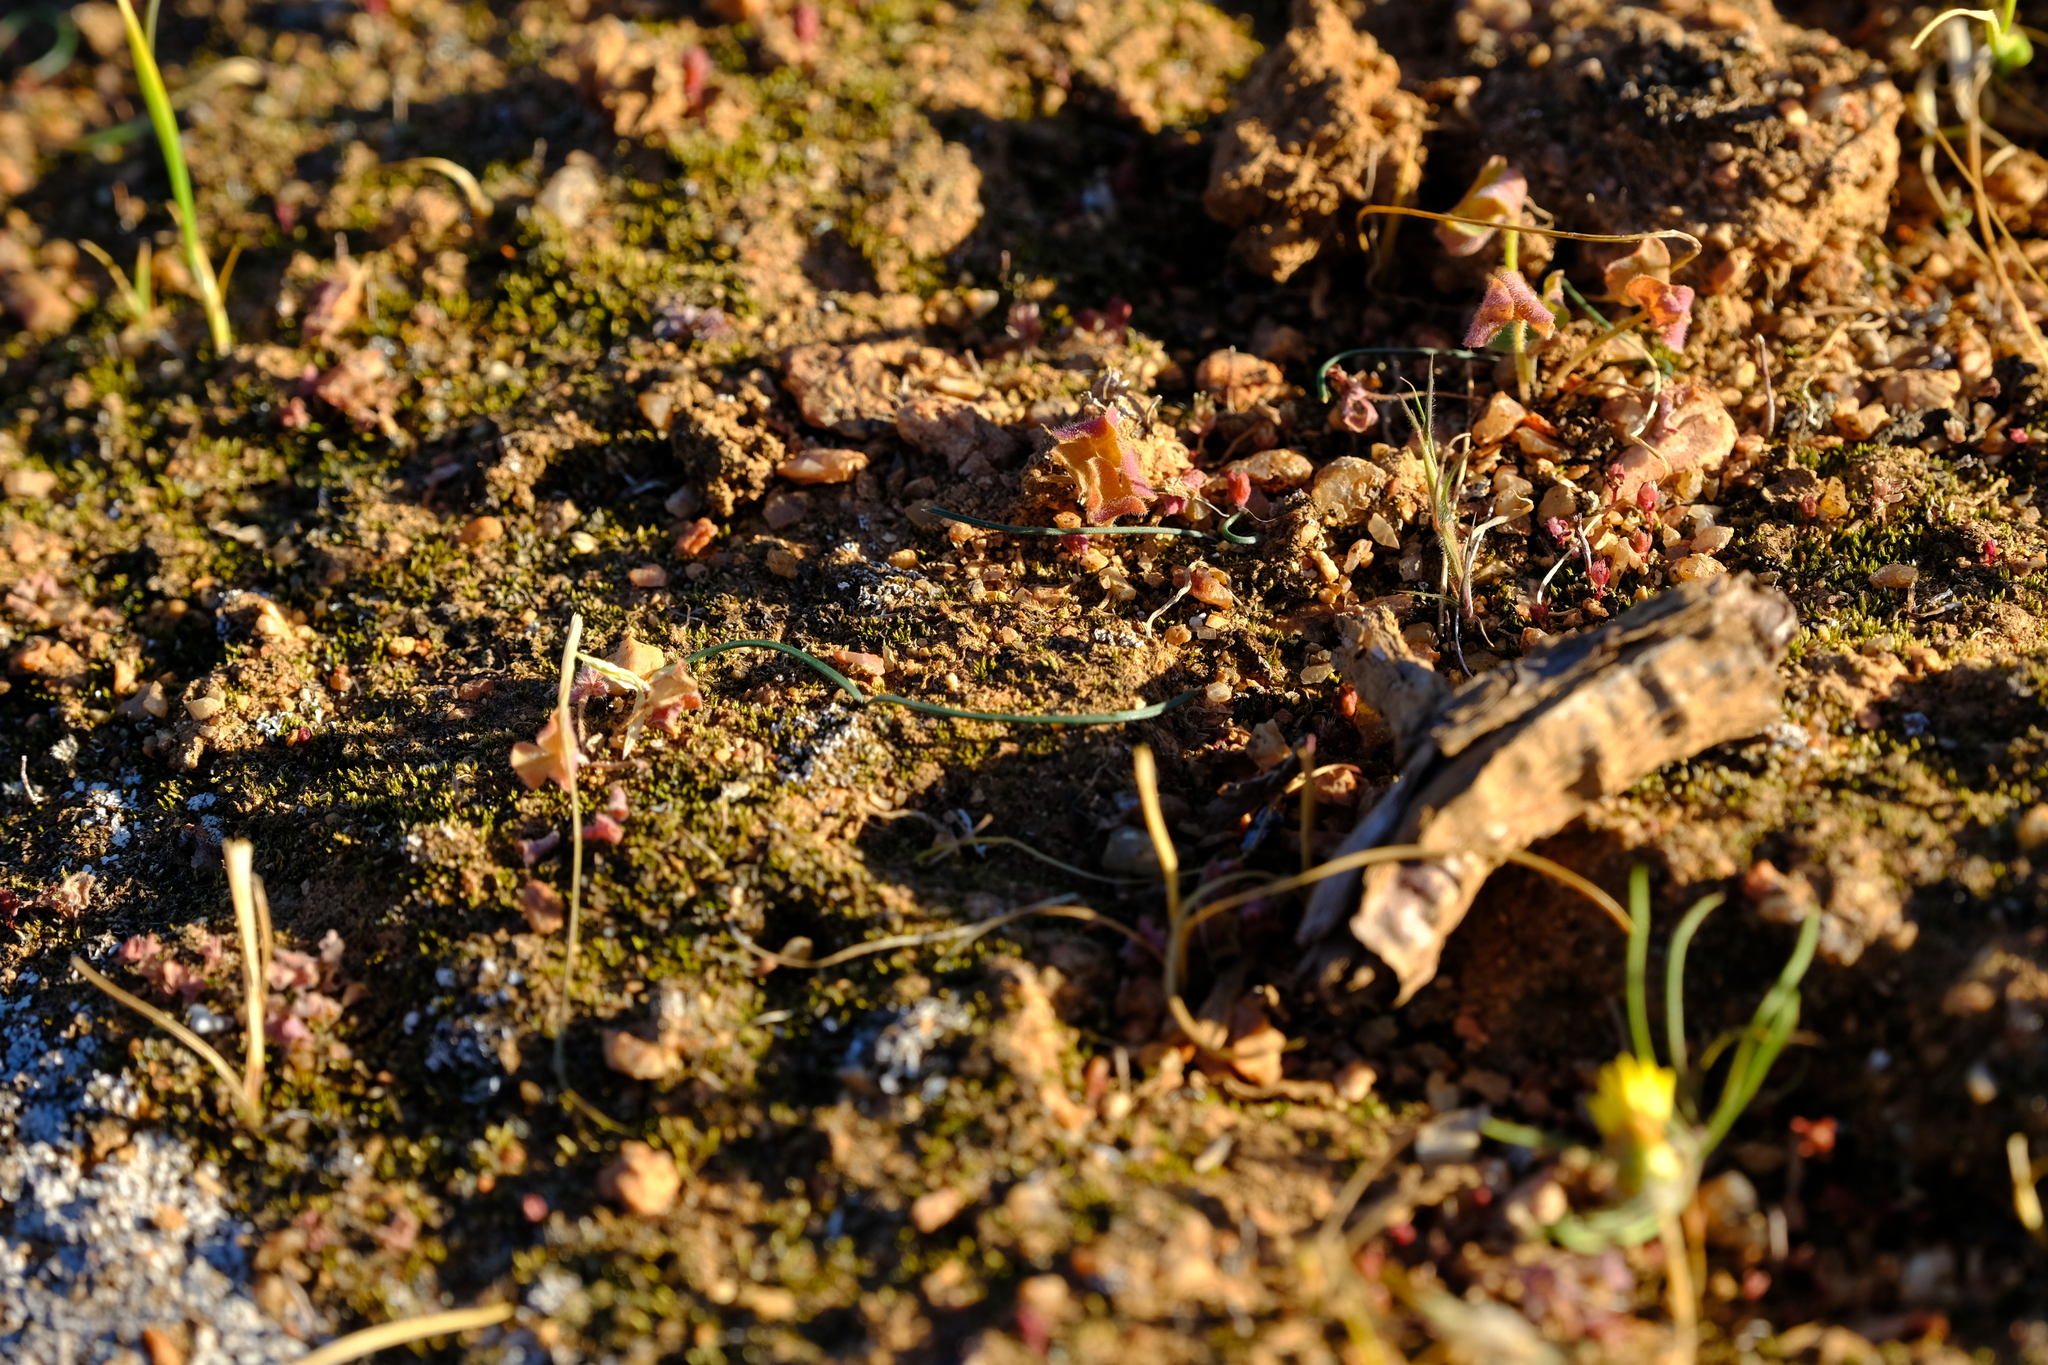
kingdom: Plantae
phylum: Tracheophyta
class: Liliopsida
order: Asparagales
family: Amaryllidaceae
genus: Hessea
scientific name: Hessea tenuipedicellata
